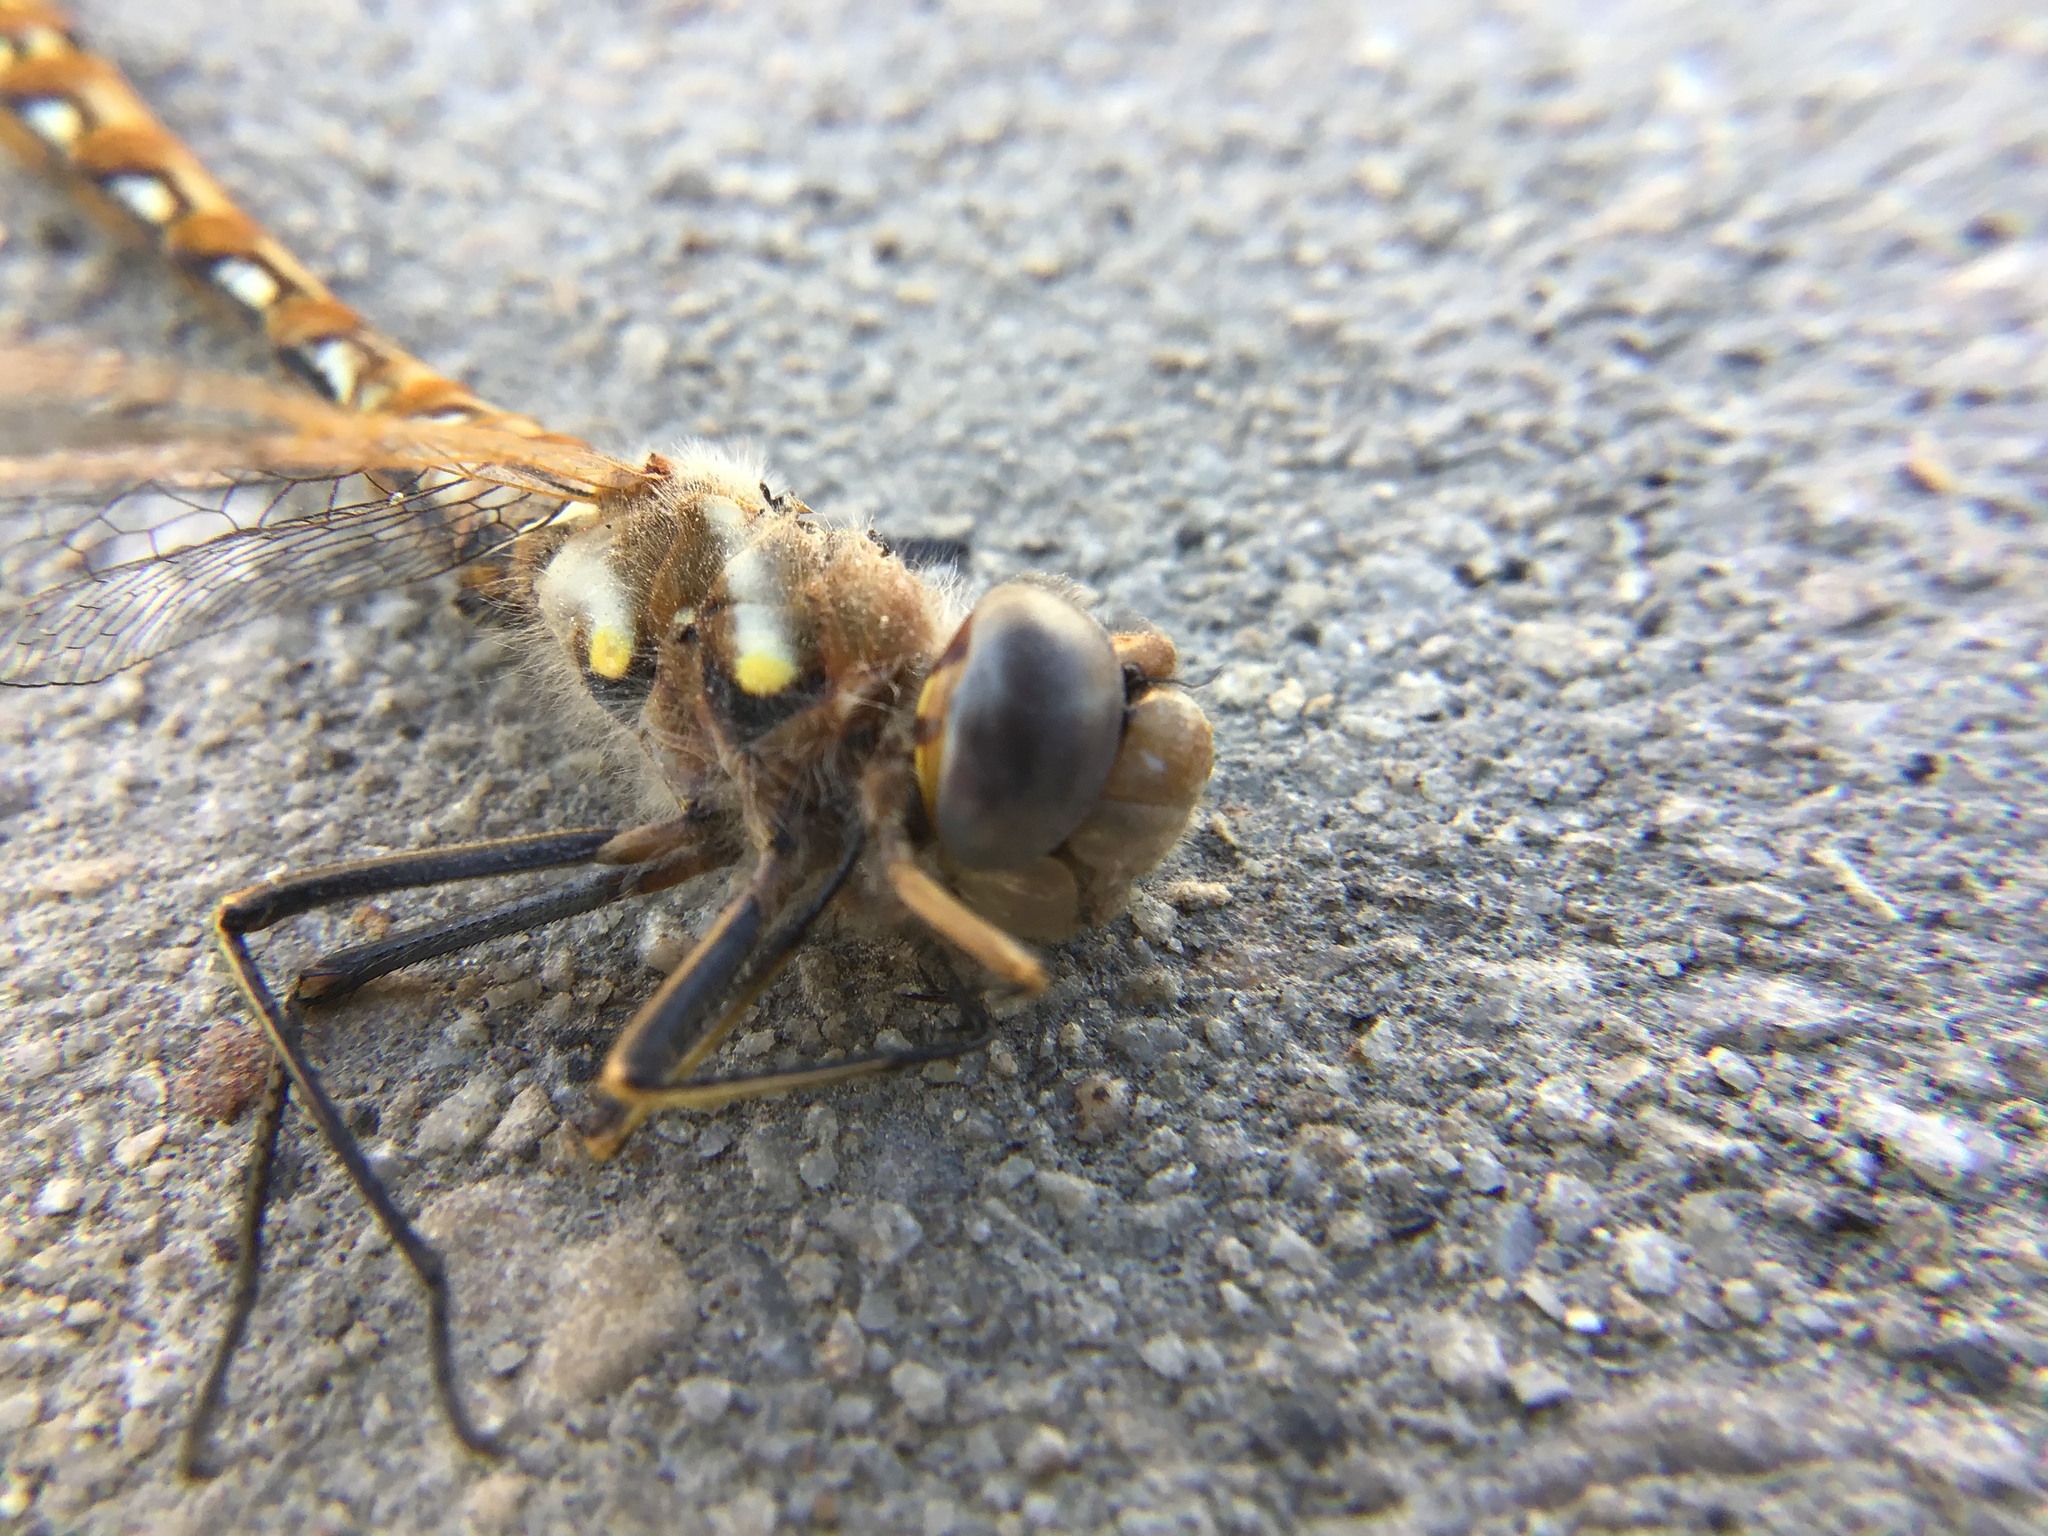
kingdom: Animalia
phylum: Arthropoda
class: Insecta
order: Odonata
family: Libellulidae
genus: Sympetrum
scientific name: Sympetrum corruptum
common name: Variegated meadowhawk
